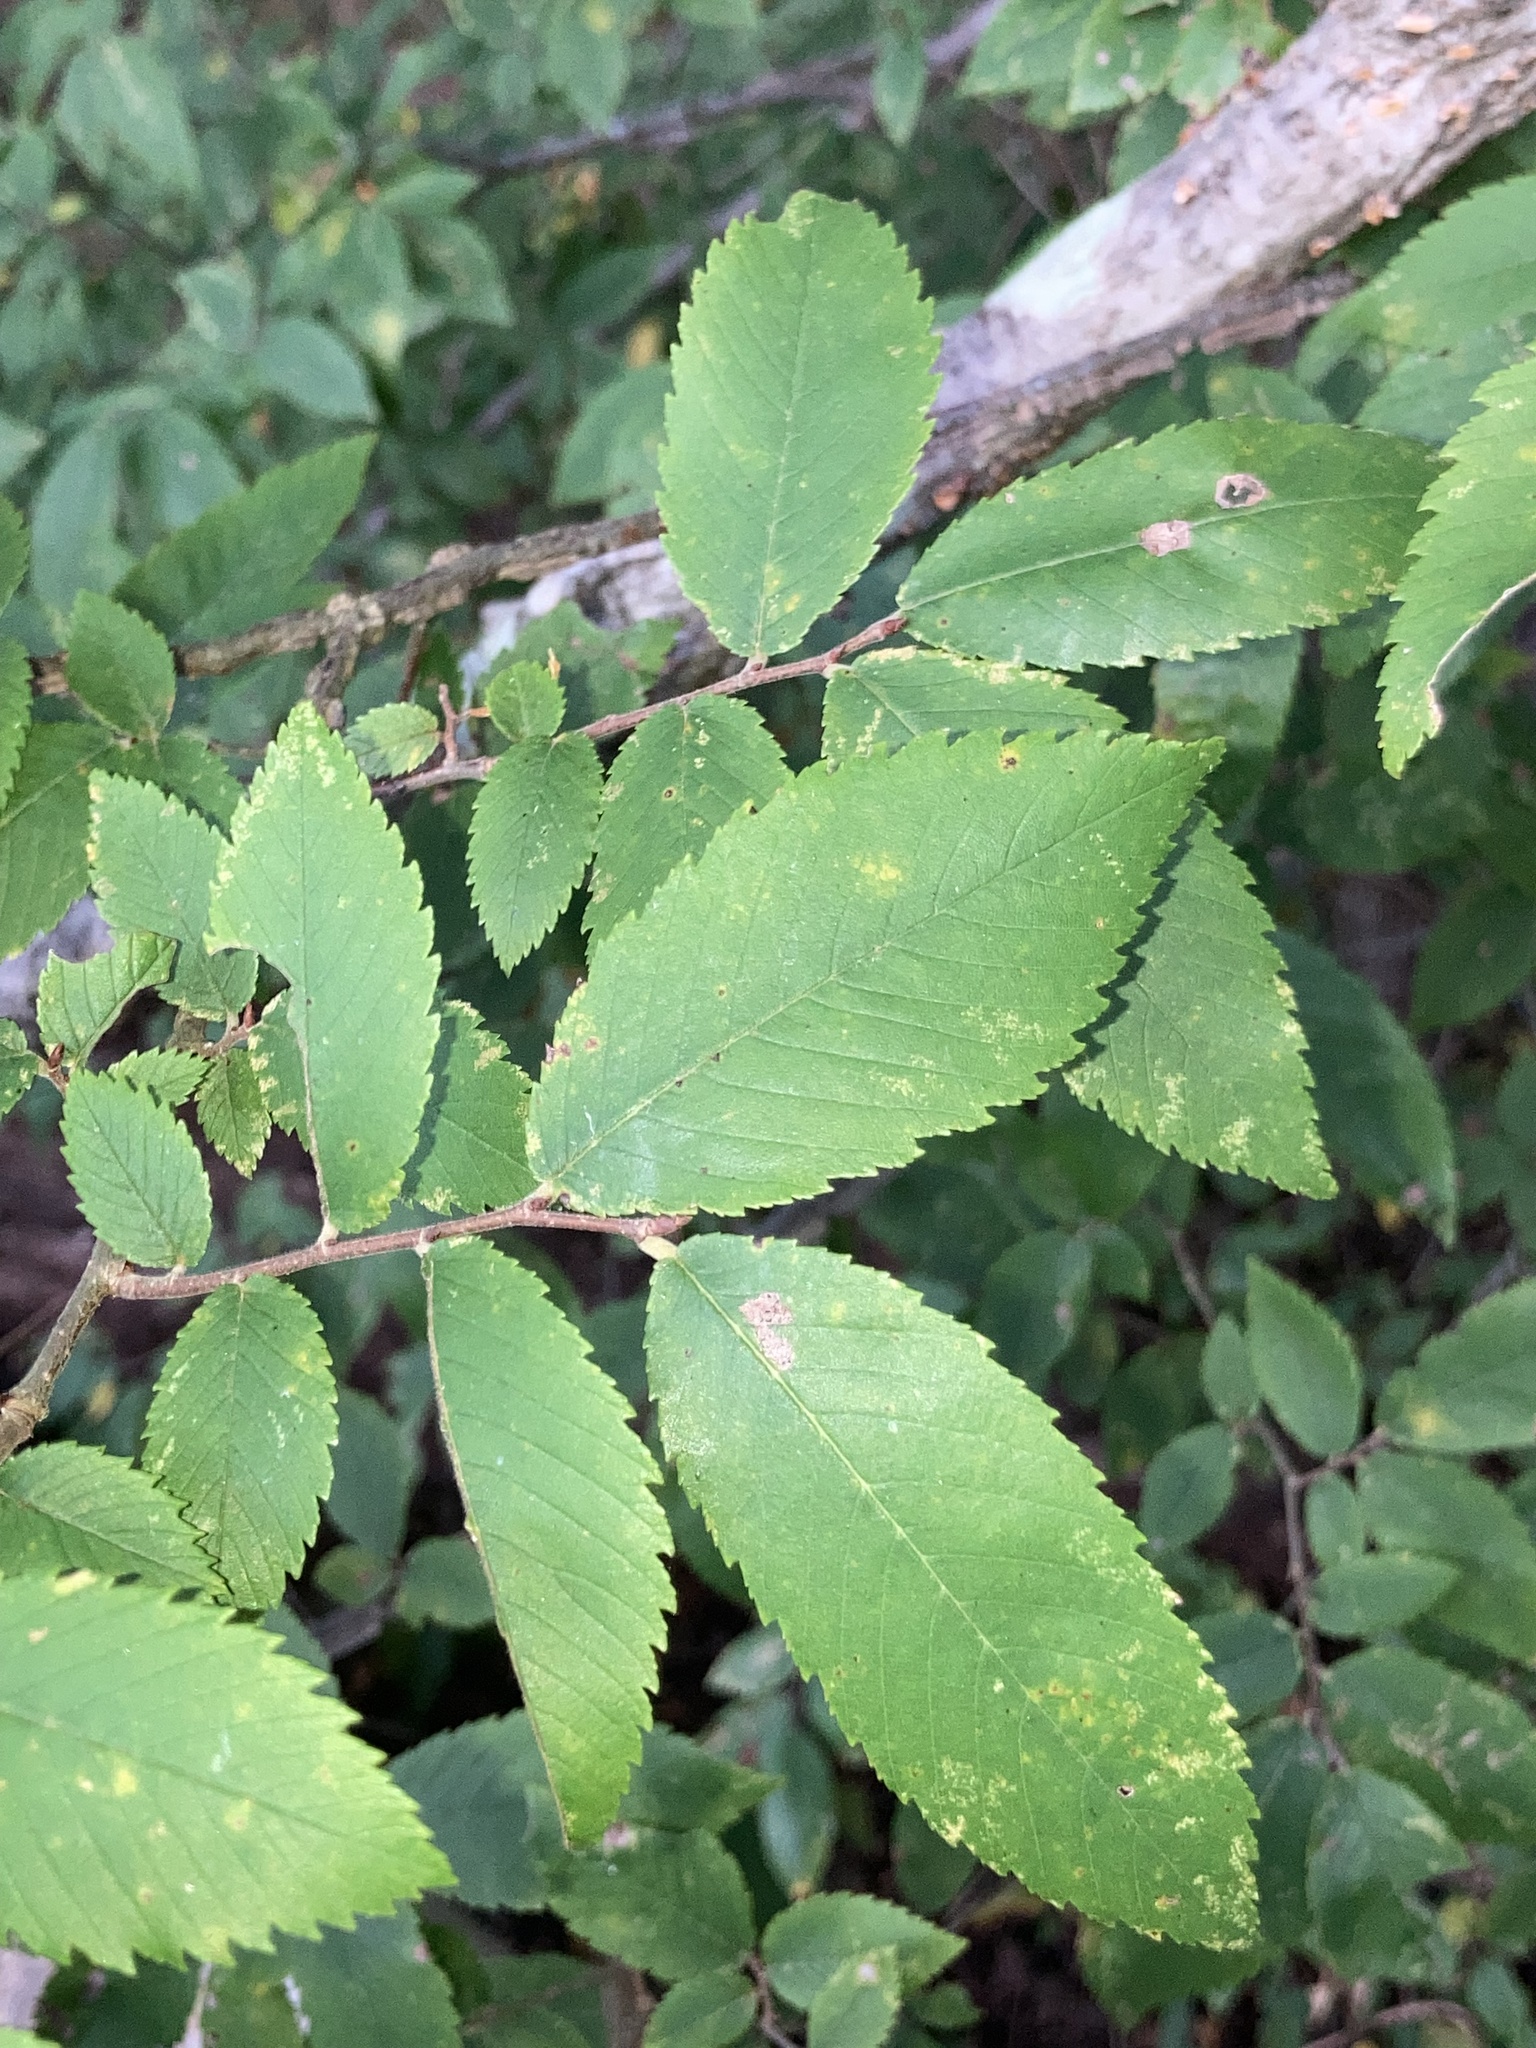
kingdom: Plantae
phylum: Tracheophyta
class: Magnoliopsida
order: Rosales
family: Ulmaceae
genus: Ulmus
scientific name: Ulmus alata
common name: Winged elm
